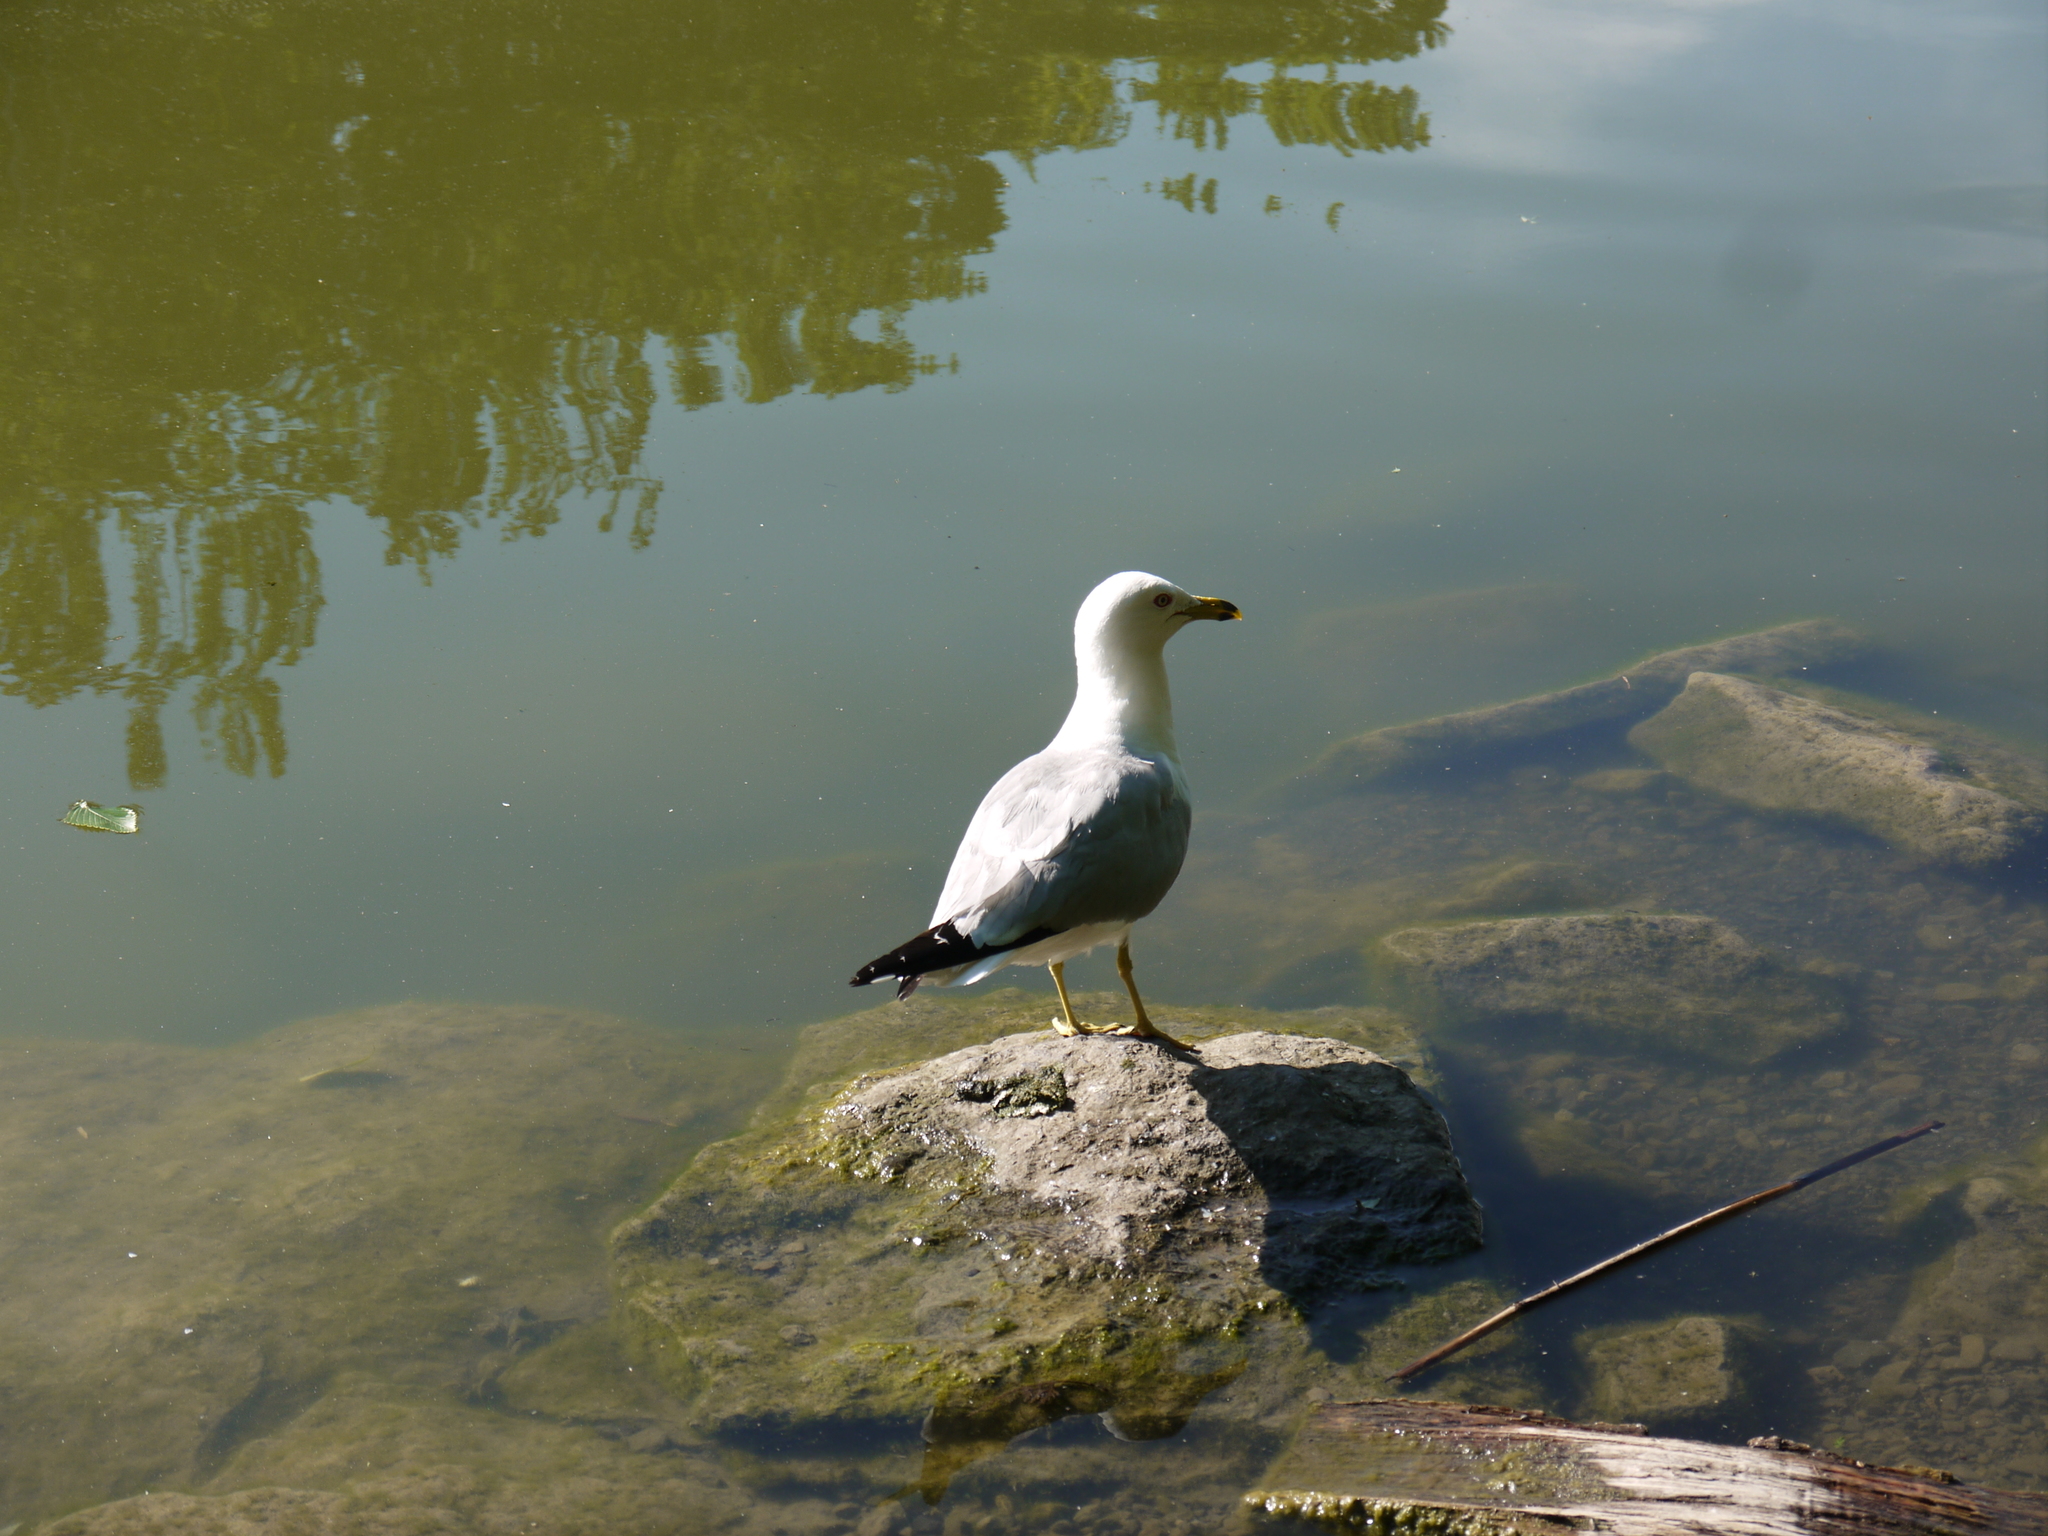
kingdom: Animalia
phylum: Chordata
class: Aves
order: Charadriiformes
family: Laridae
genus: Larus
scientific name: Larus delawarensis
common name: Ring-billed gull
